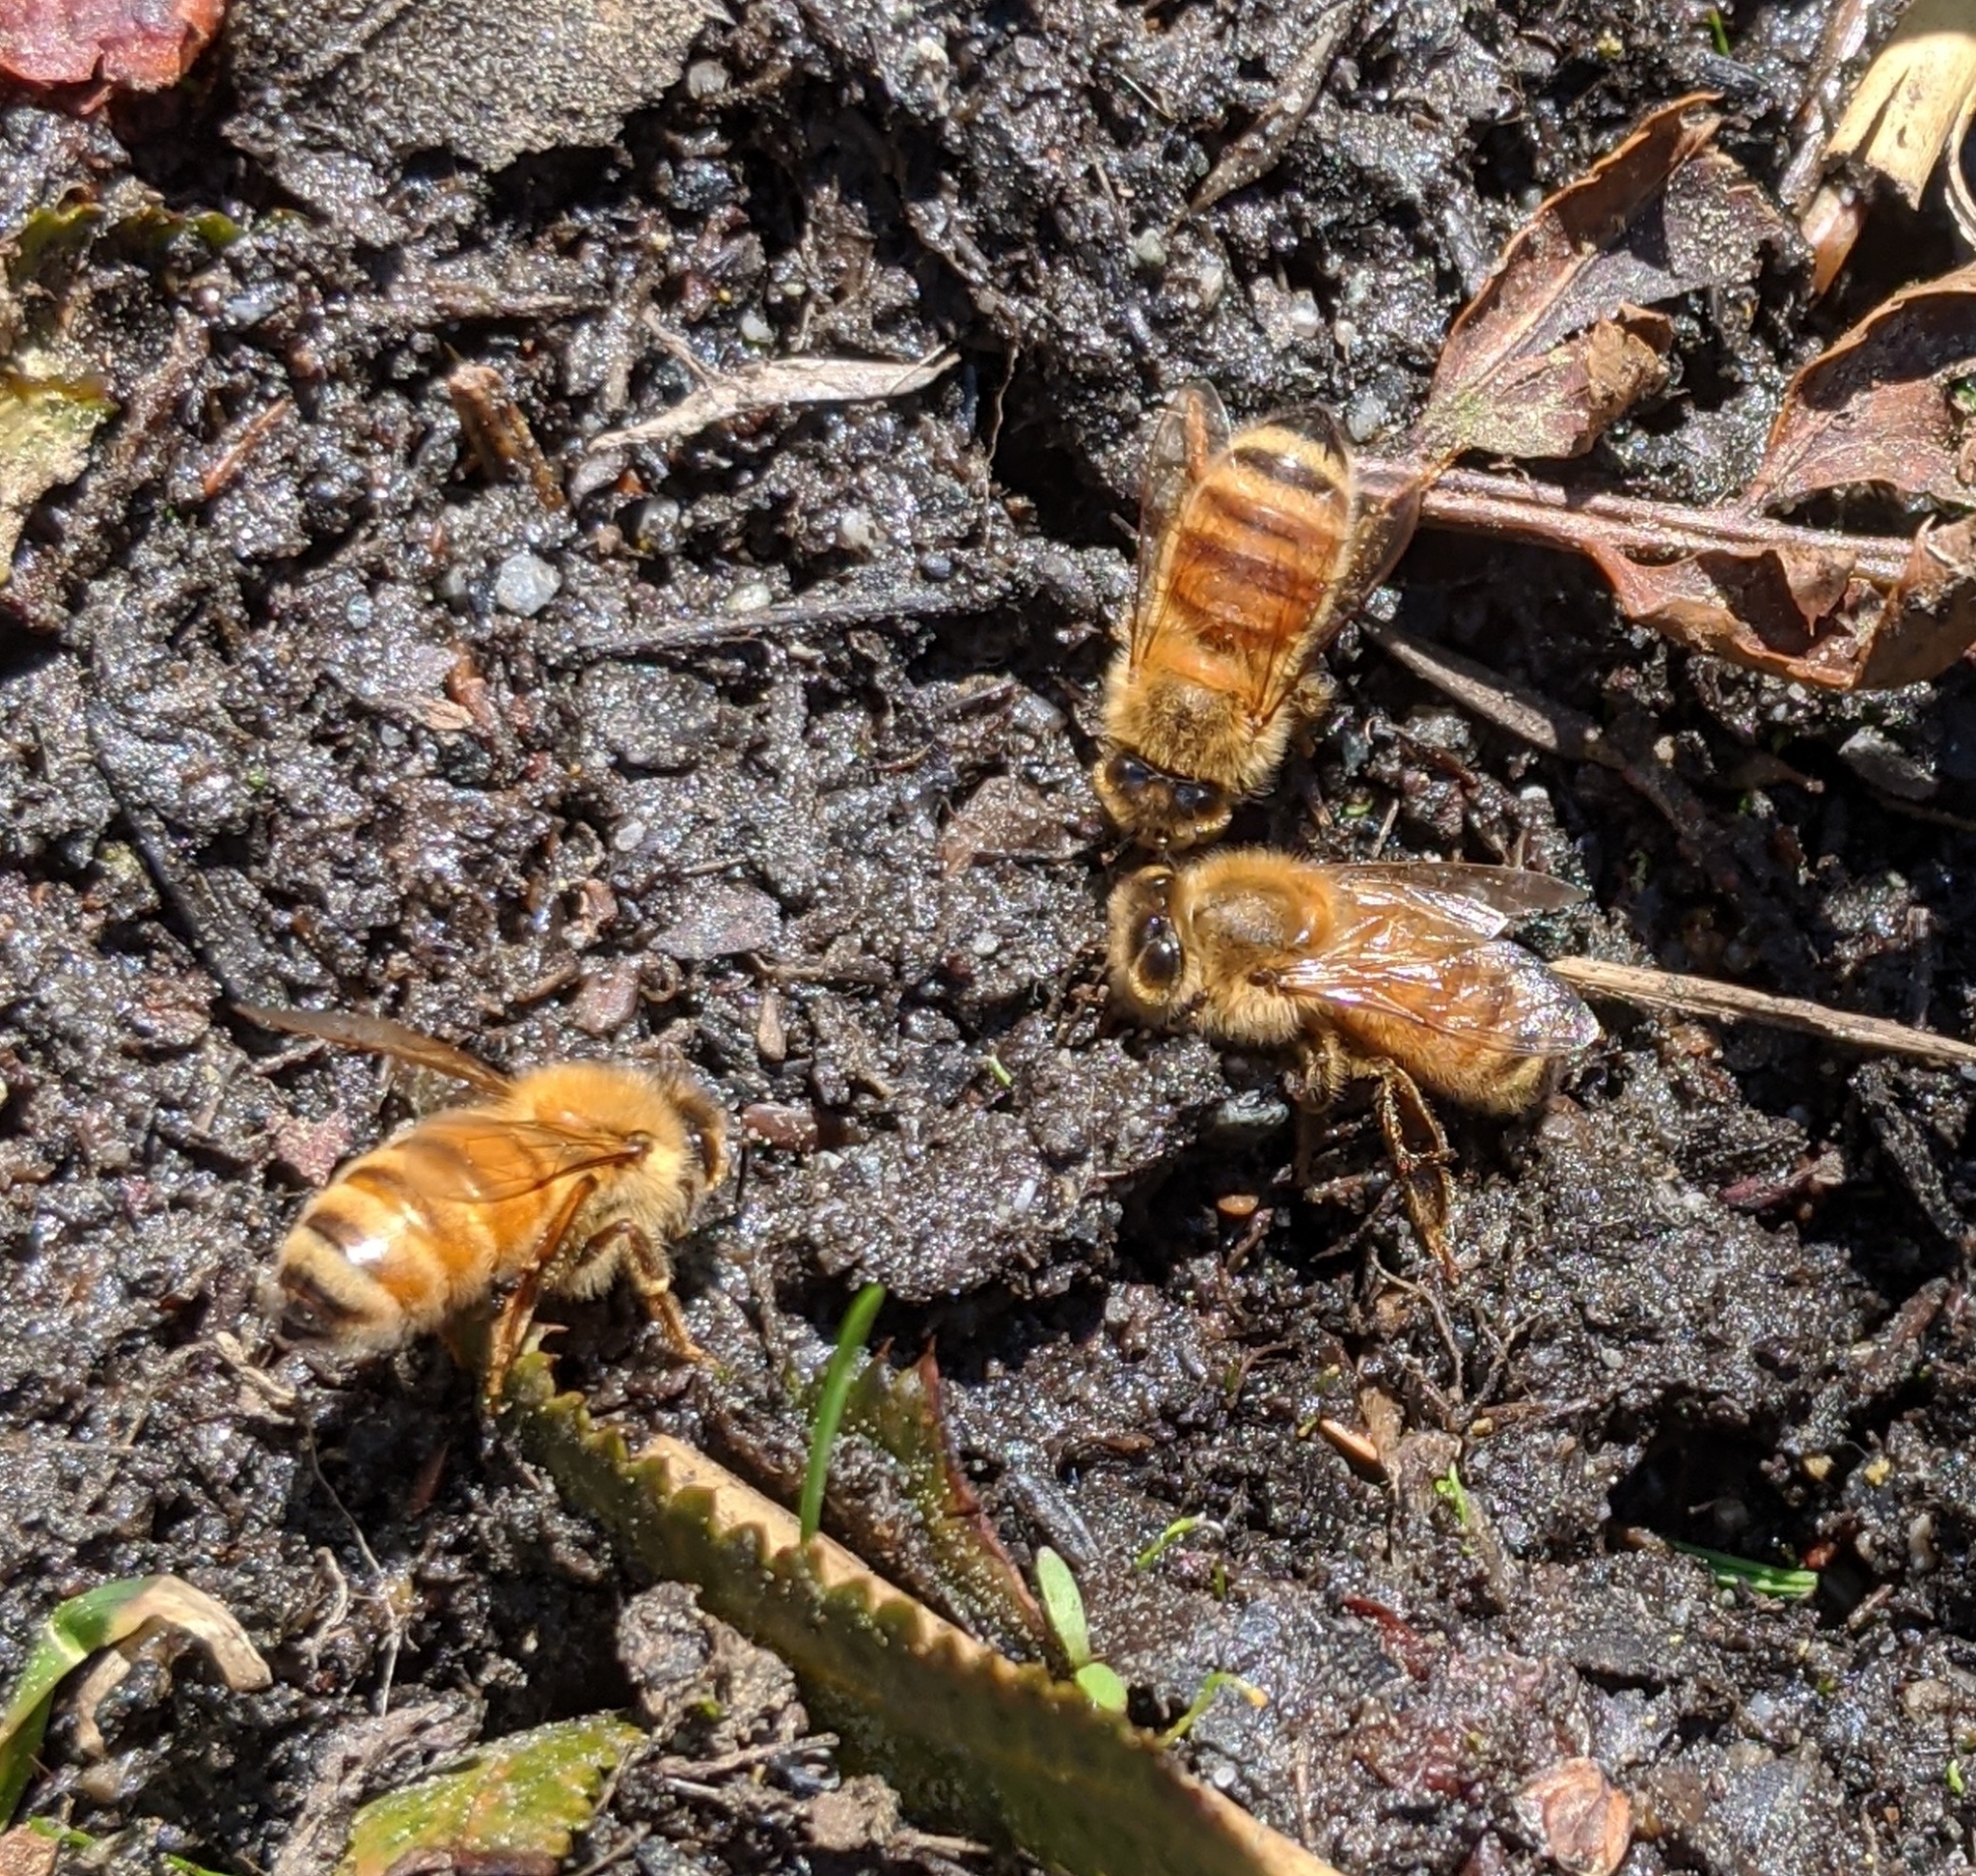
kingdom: Animalia
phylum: Arthropoda
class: Insecta
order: Hymenoptera
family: Apidae
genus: Apis
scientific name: Apis mellifera
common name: Honey bee
